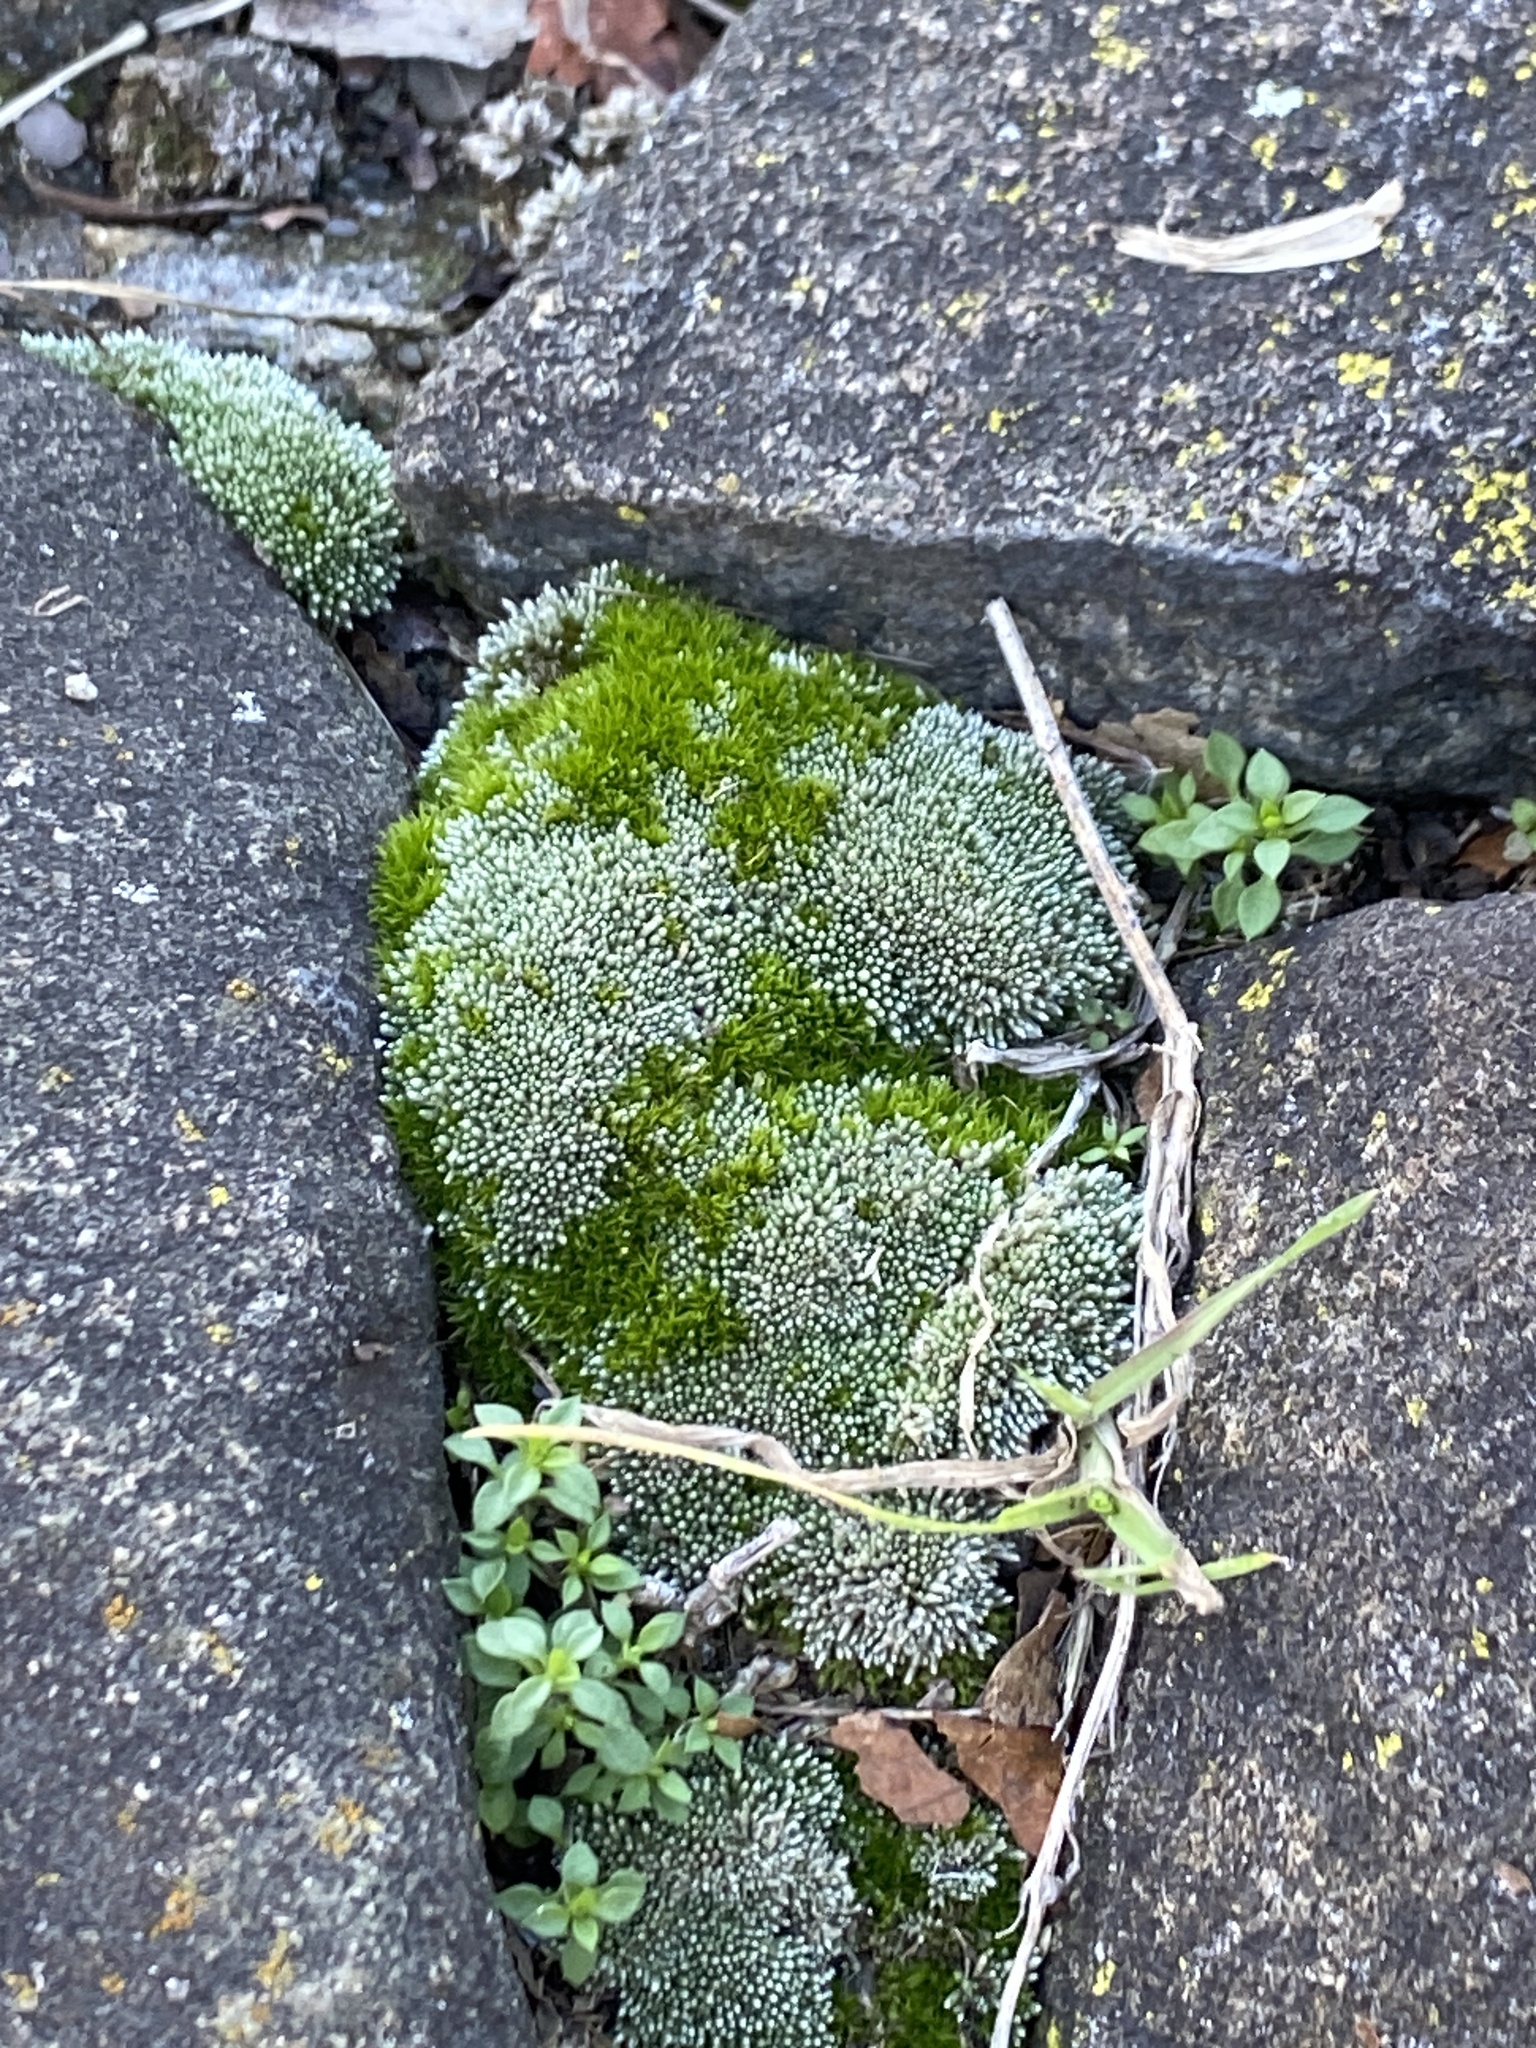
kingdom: Plantae
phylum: Bryophyta
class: Bryopsida
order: Bryales
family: Bryaceae
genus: Bryum
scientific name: Bryum argenteum
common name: Silver-moss
